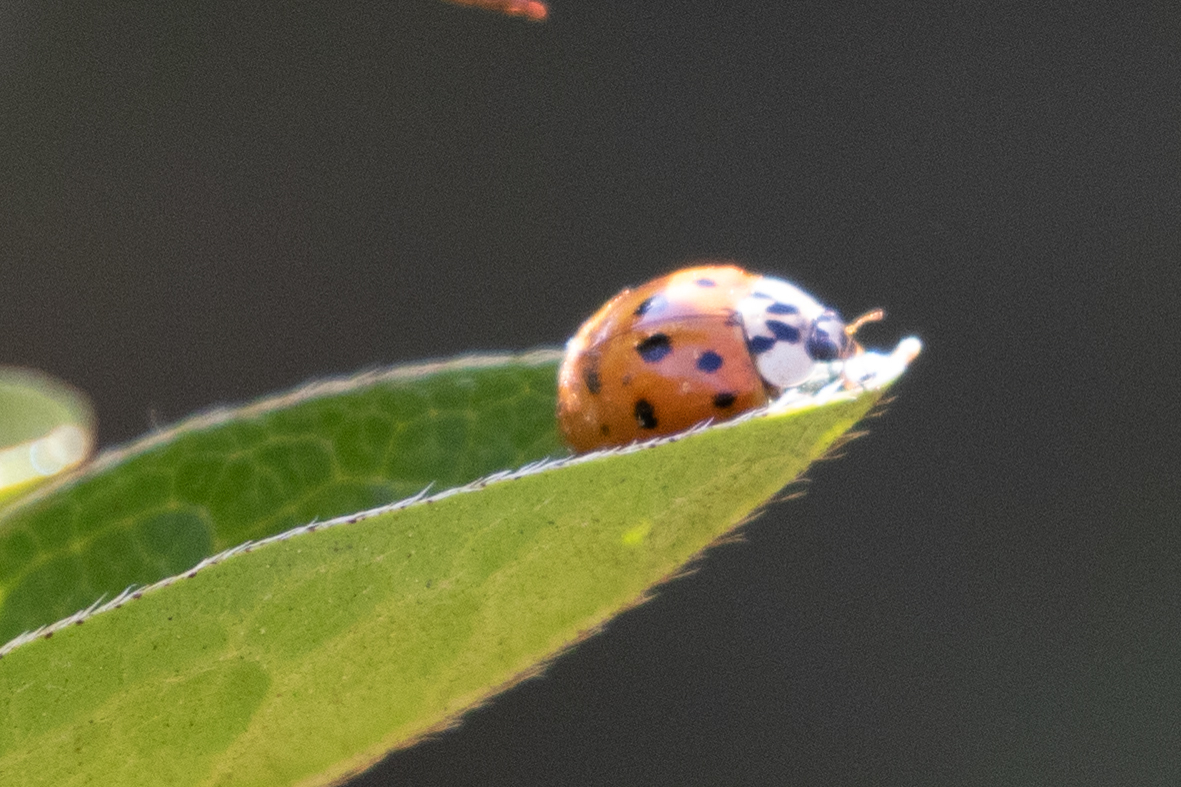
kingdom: Animalia
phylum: Arthropoda
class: Insecta
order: Coleoptera
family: Coccinellidae
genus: Harmonia
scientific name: Harmonia axyridis
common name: Harlequin ladybird
